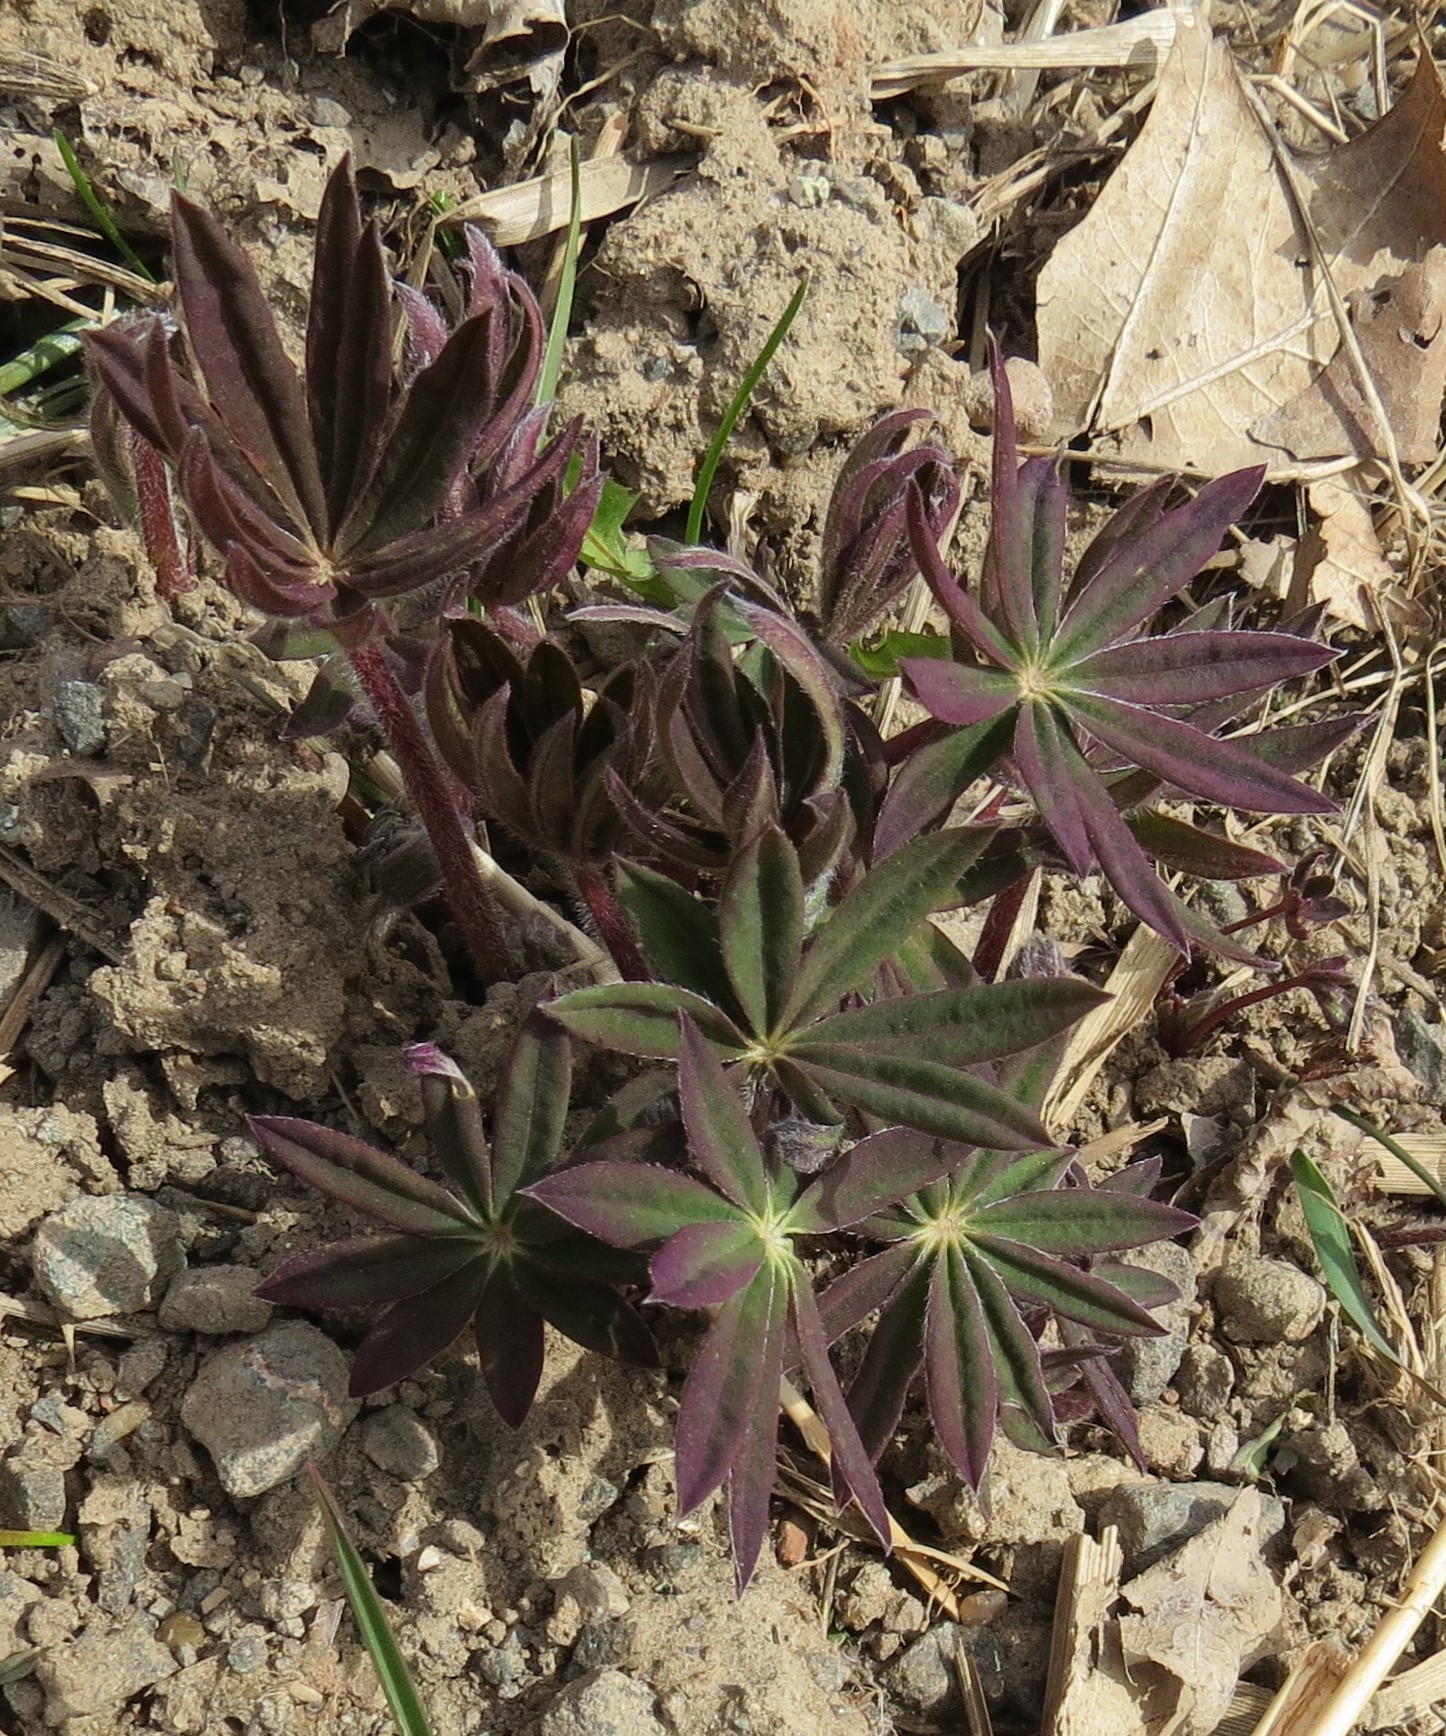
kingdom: Plantae
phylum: Tracheophyta
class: Magnoliopsida
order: Fabales
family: Fabaceae
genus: Lupinus
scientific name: Lupinus polyphyllus
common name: Garden lupin
